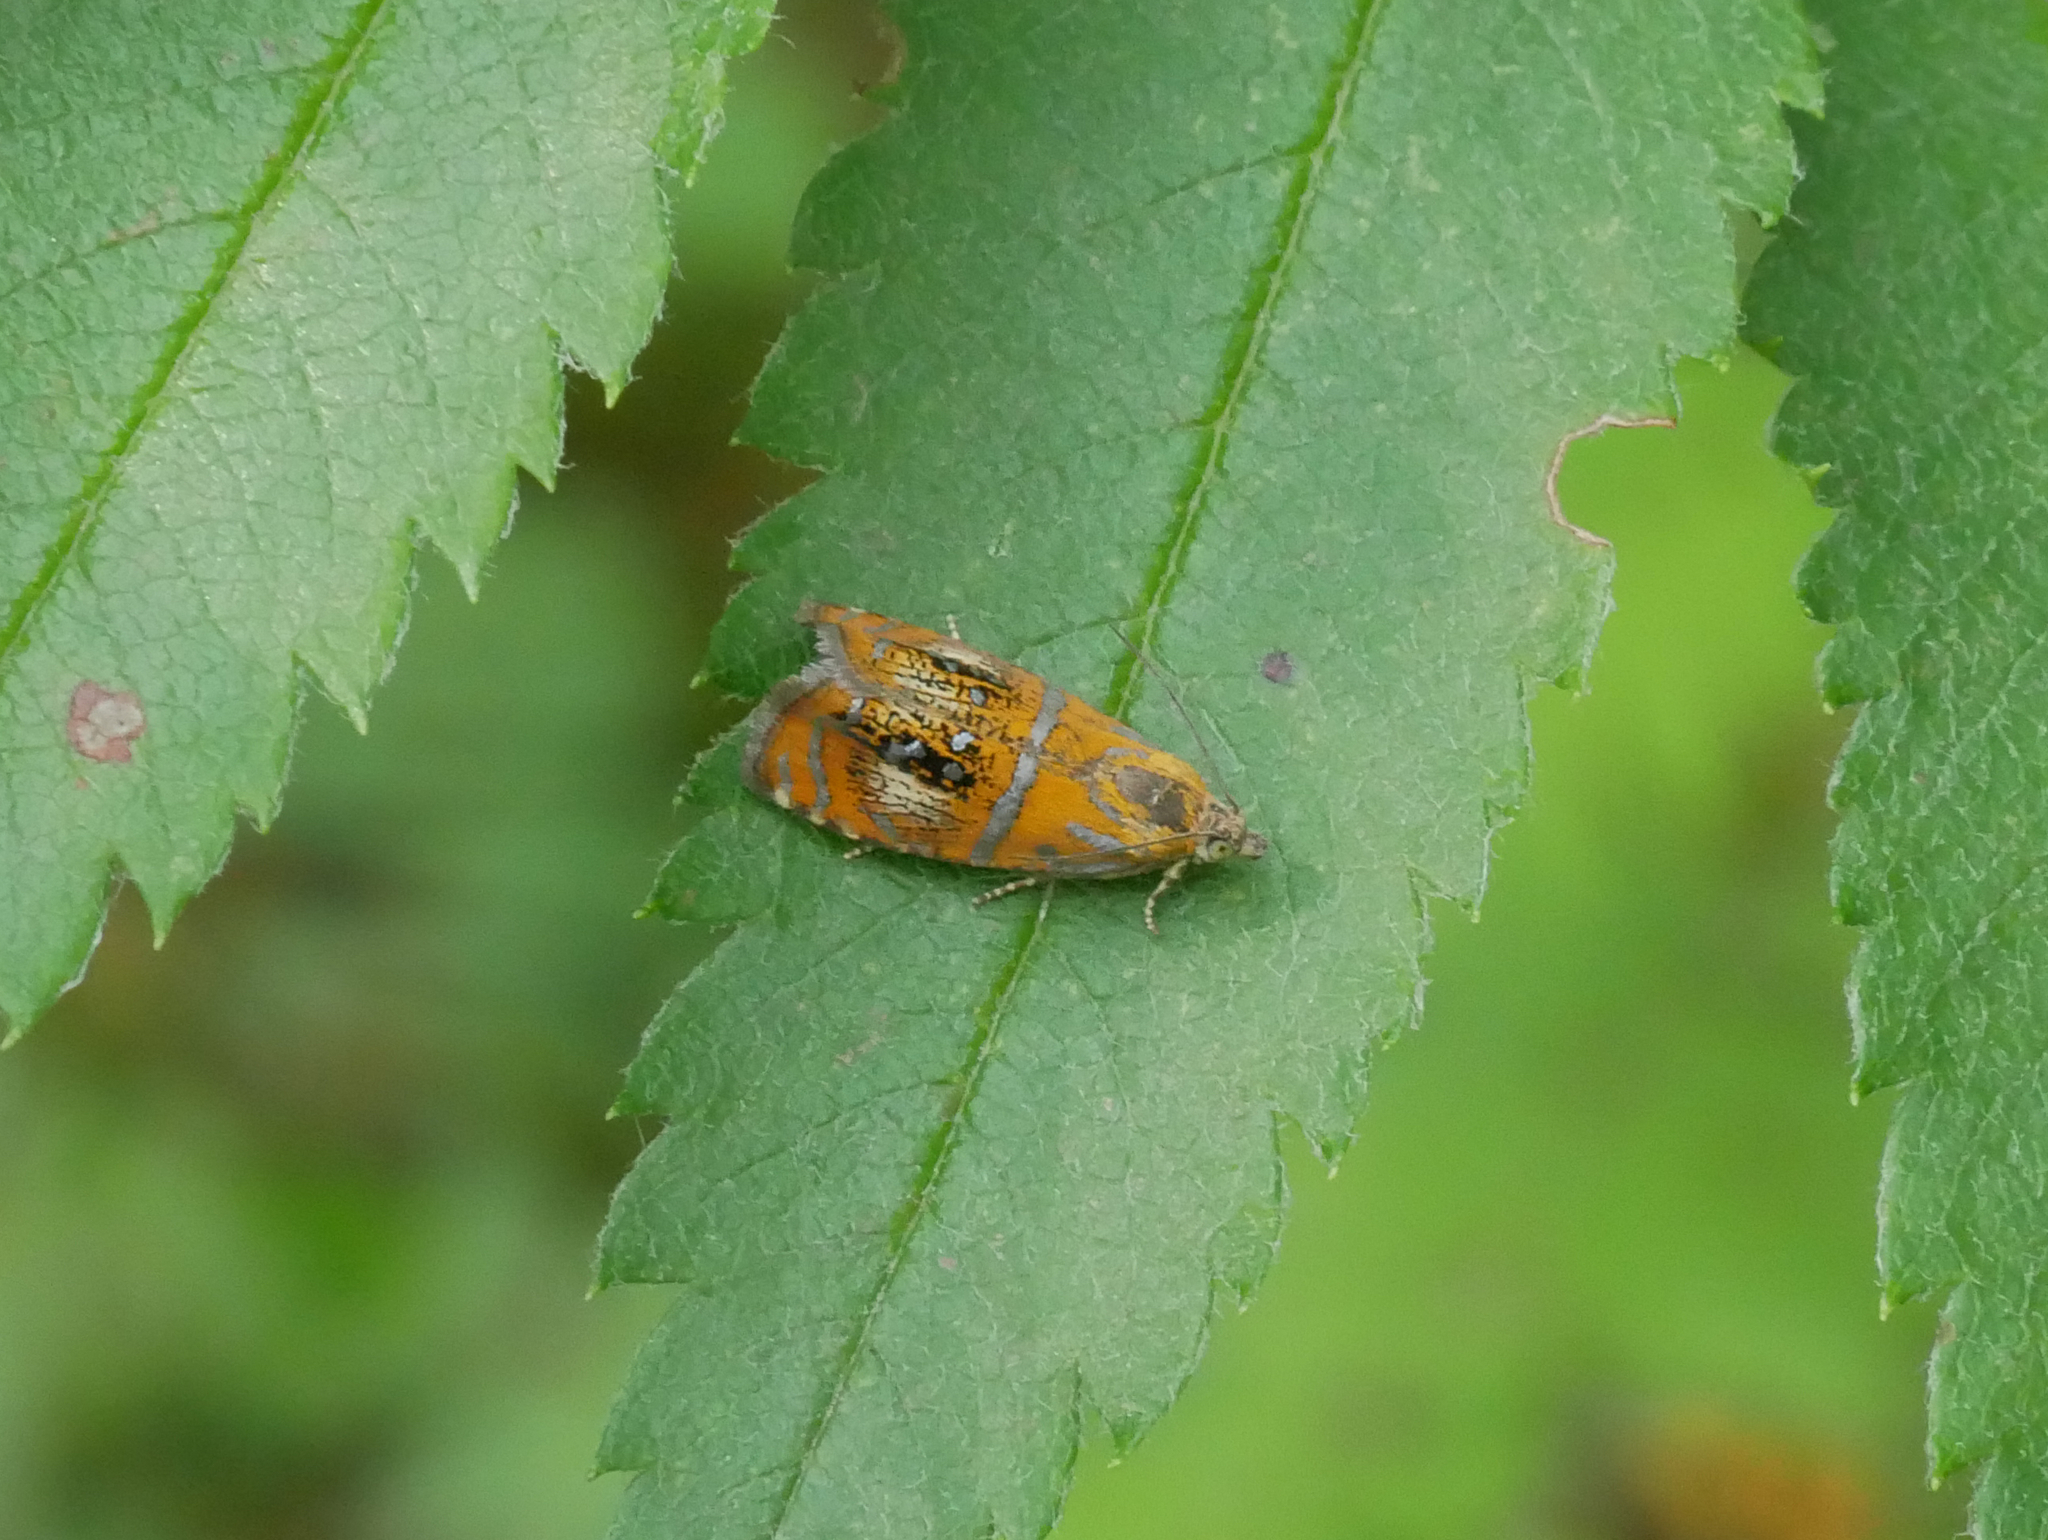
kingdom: Animalia
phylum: Arthropoda
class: Insecta
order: Lepidoptera
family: Tortricidae
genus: Olethreutes
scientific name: Olethreutes arcuella
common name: Arched marble
